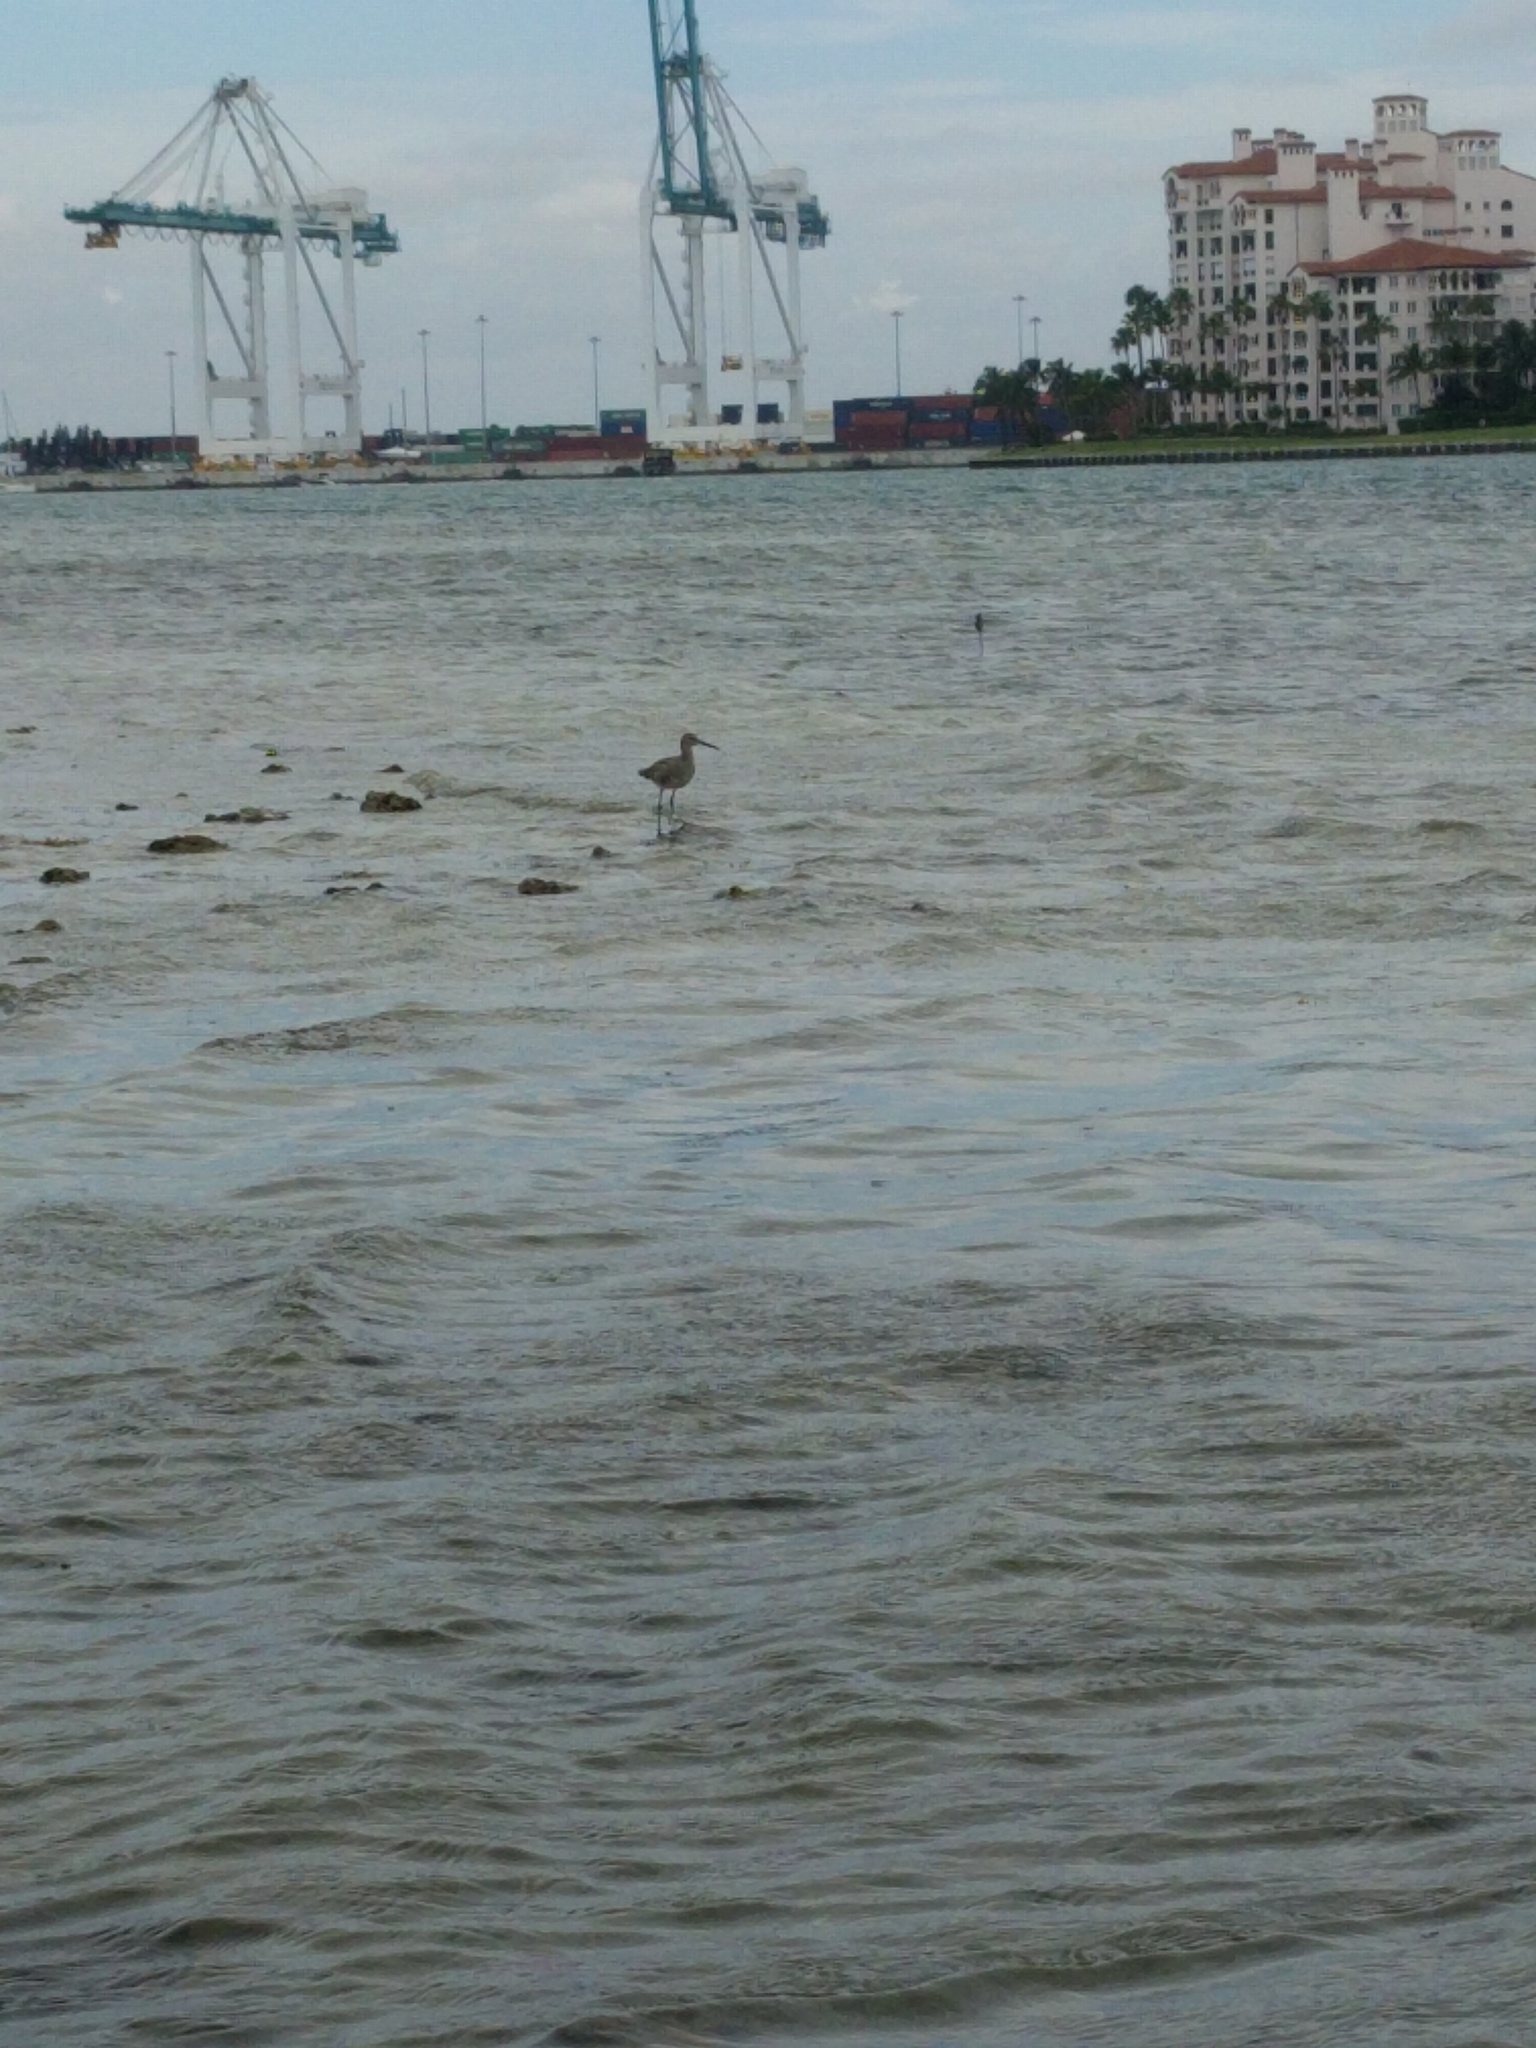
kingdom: Animalia
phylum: Chordata
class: Aves
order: Charadriiformes
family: Scolopacidae
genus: Tringa
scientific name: Tringa semipalmata
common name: Willet
